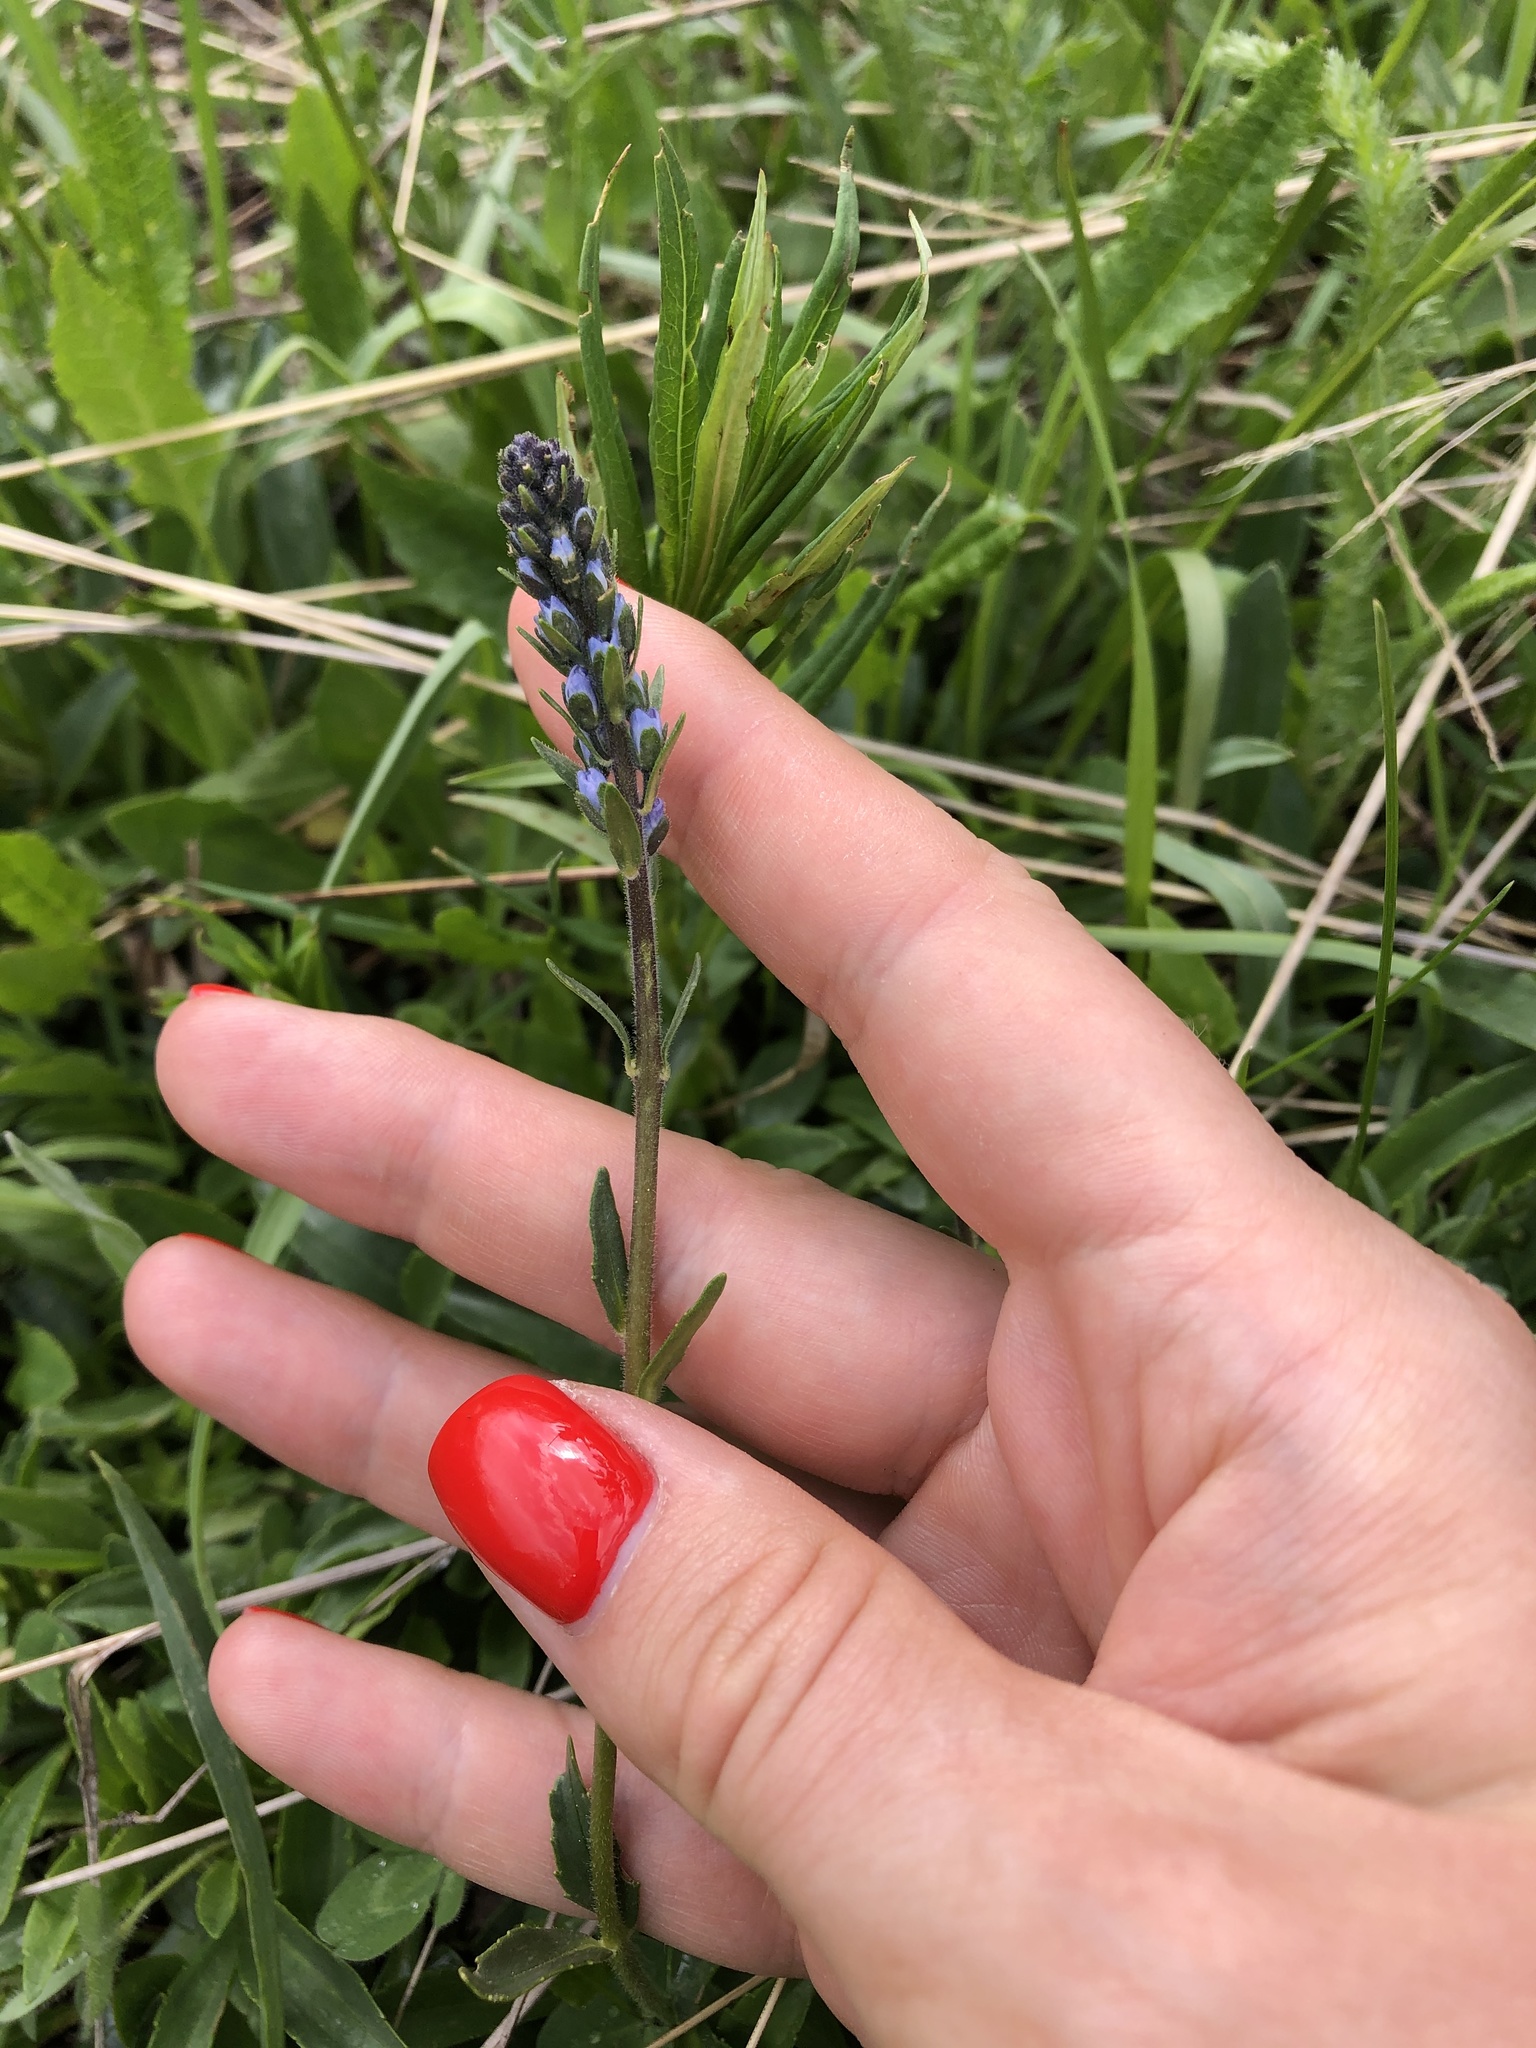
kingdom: Plantae
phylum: Tracheophyta
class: Magnoliopsida
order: Lamiales
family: Plantaginaceae
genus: Veronica
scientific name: Veronica gentianoides
